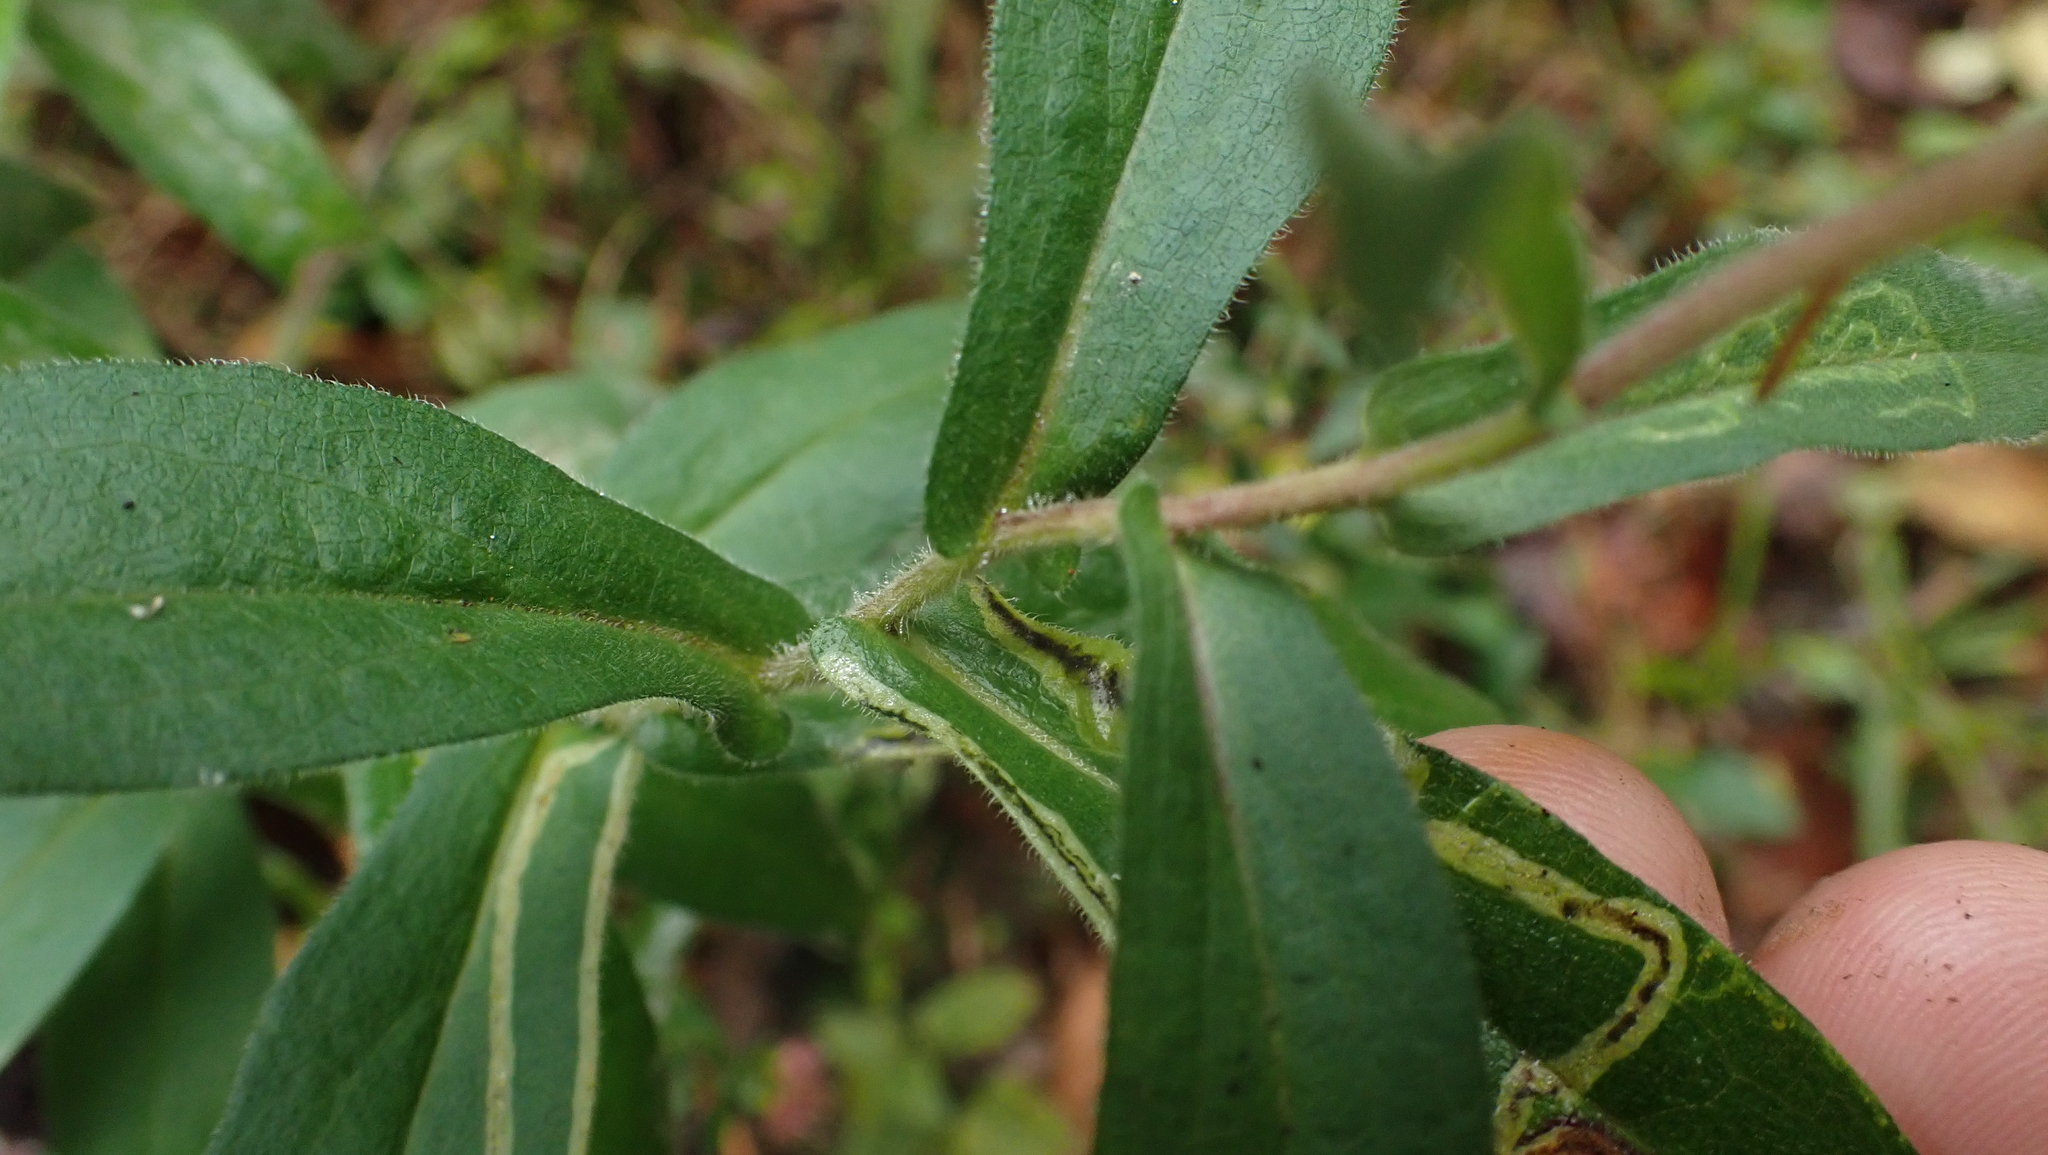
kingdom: Plantae
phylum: Tracheophyta
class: Magnoliopsida
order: Asterales
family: Asteraceae
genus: Symphyotrichum
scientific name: Symphyotrichum novae-angliae
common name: Michaelmas daisy
